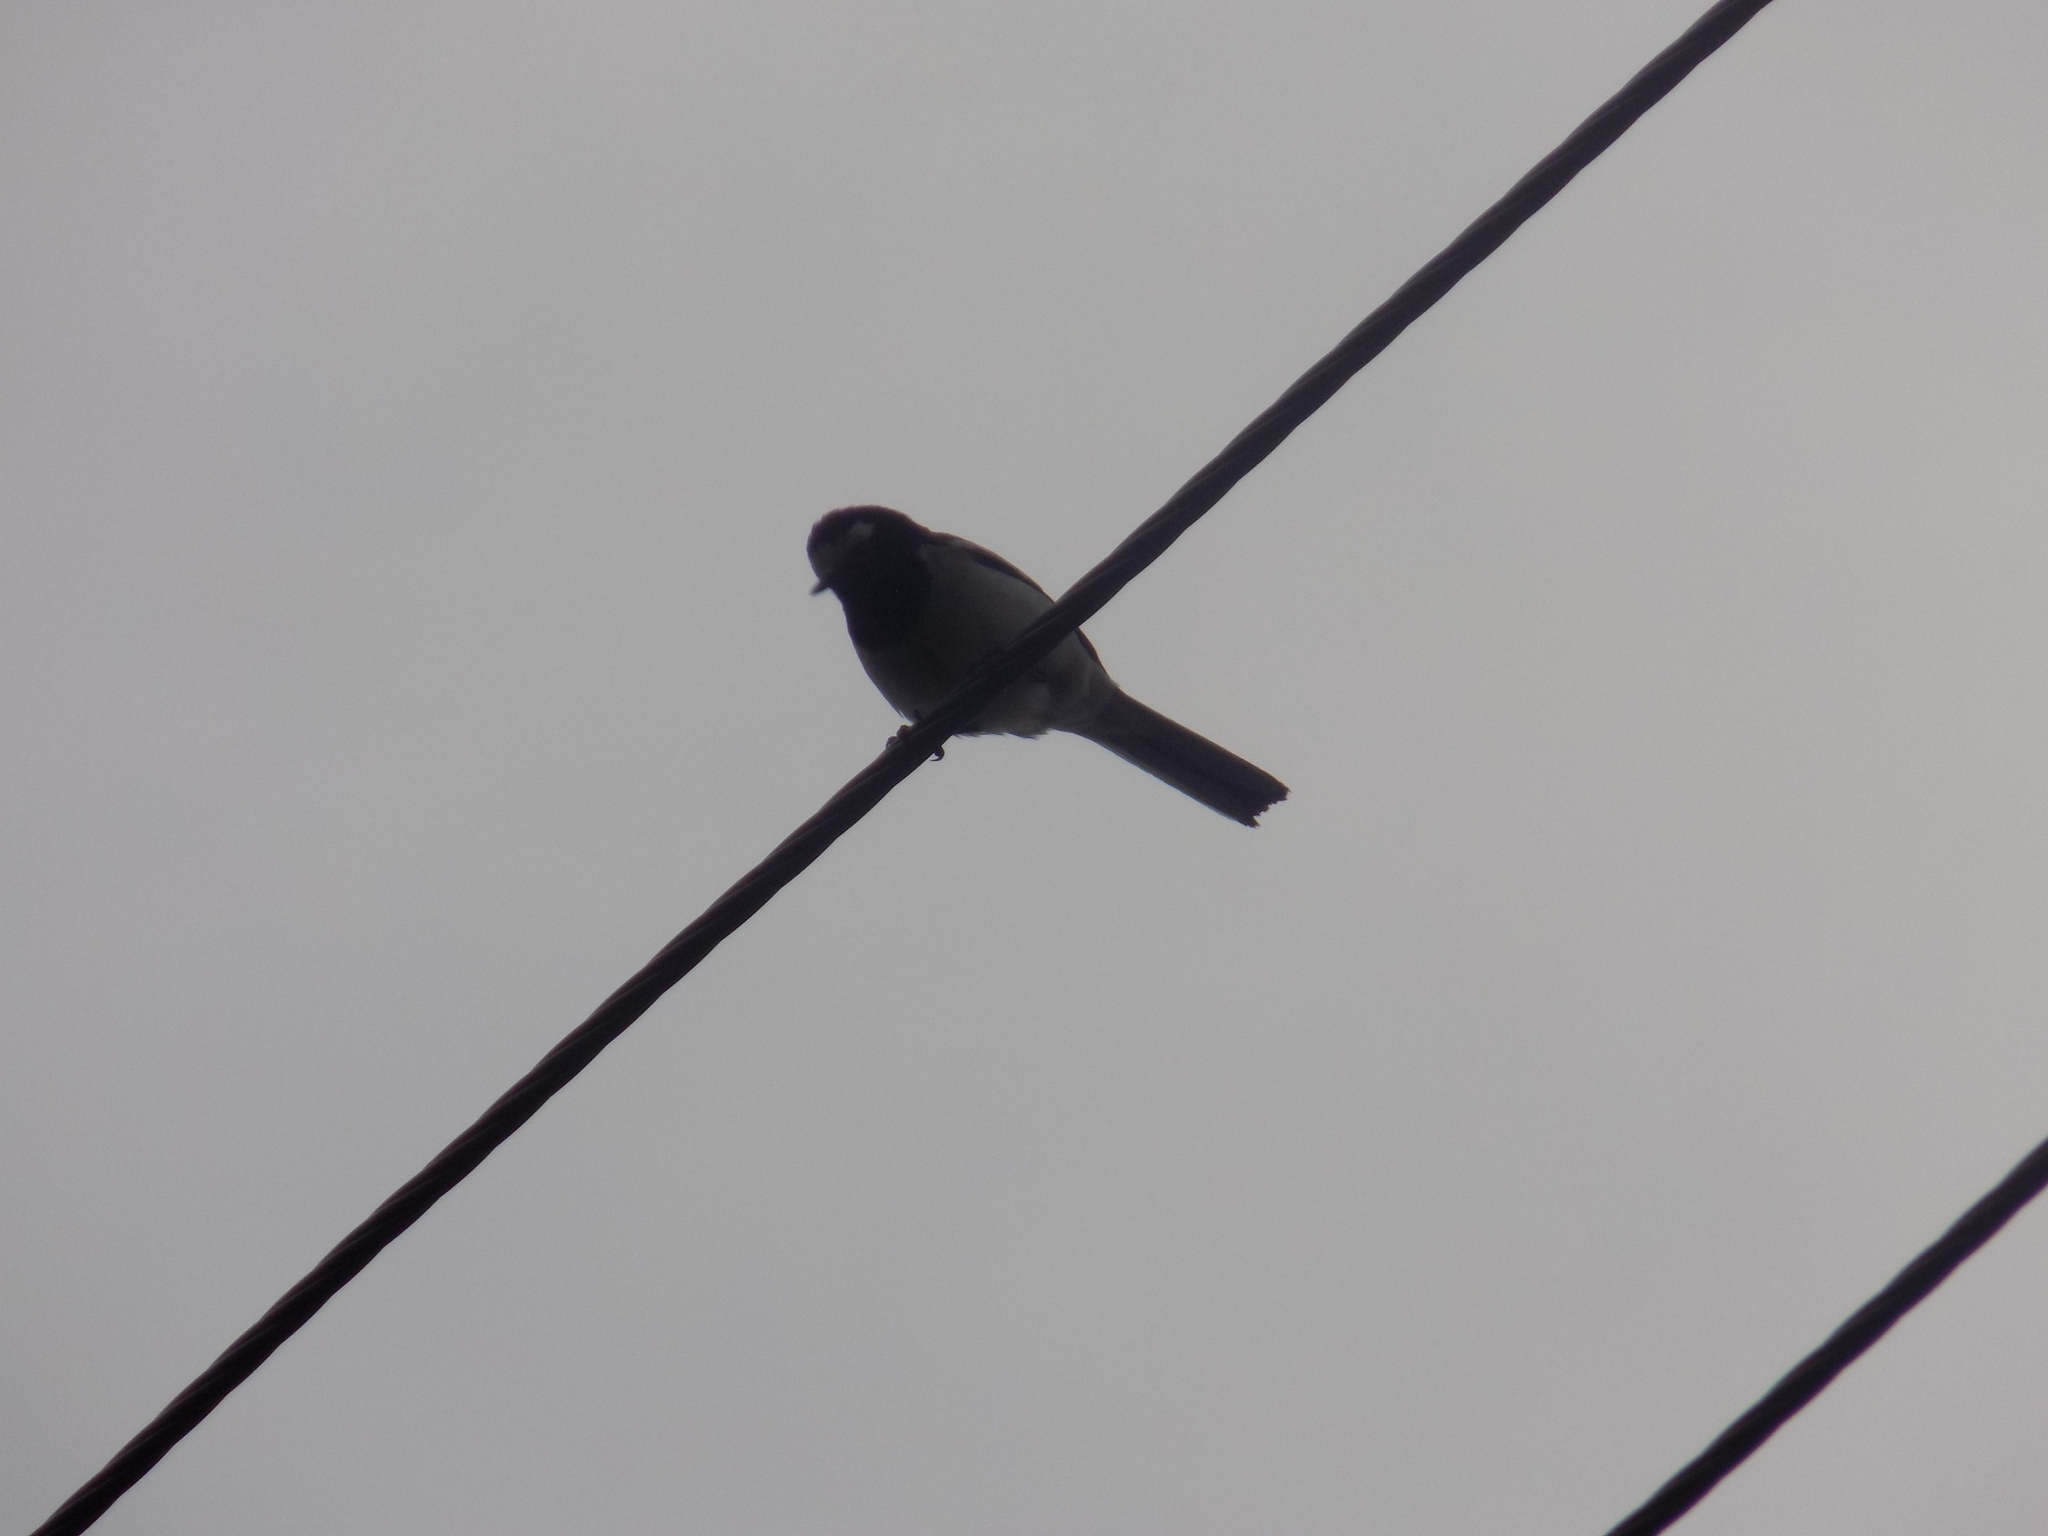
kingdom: Animalia
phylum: Chordata
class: Aves
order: Passeriformes
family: Motacillidae
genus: Motacilla
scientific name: Motacilla alba
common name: White wagtail
